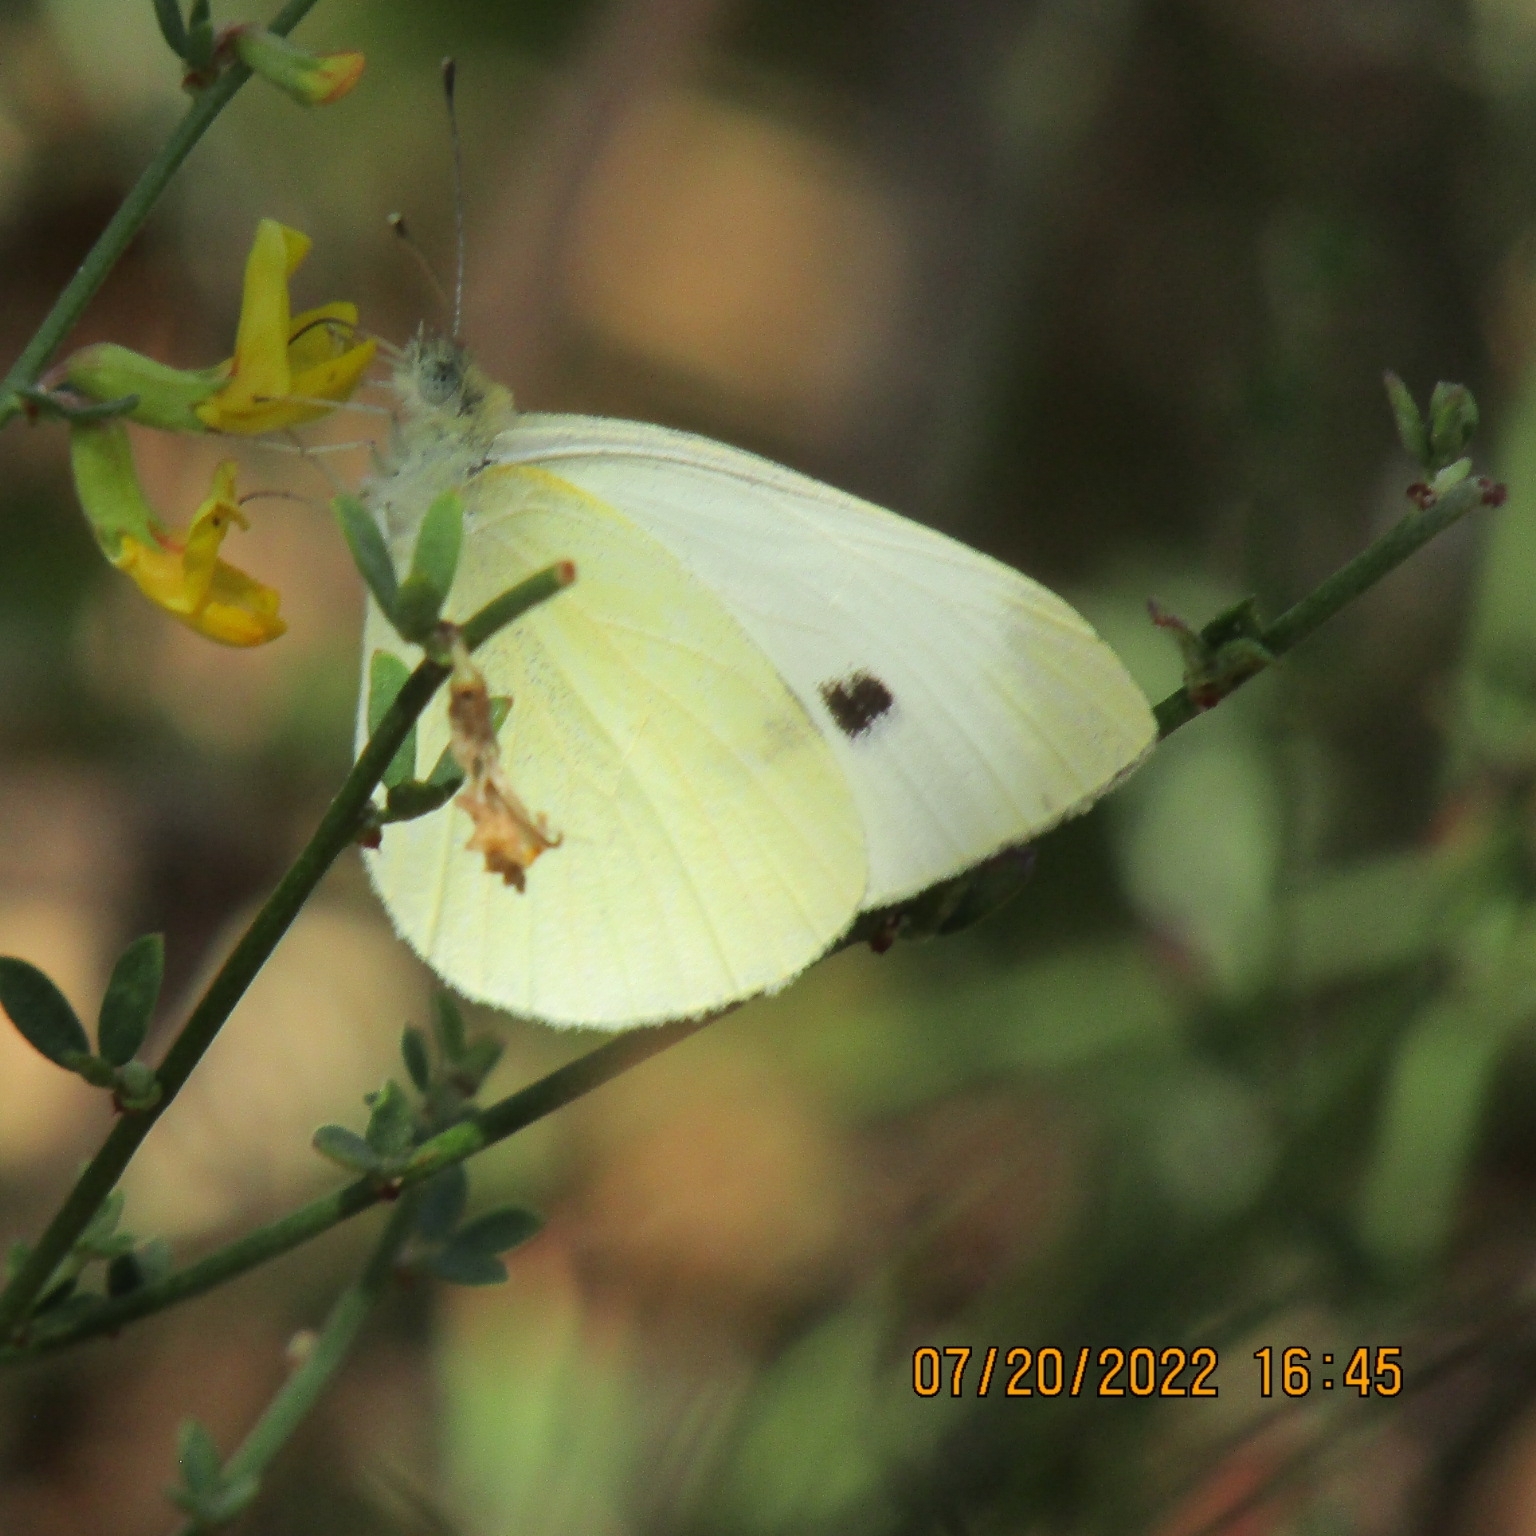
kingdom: Animalia
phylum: Arthropoda
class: Insecta
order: Lepidoptera
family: Pieridae
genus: Pieris
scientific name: Pieris rapae
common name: Small white
